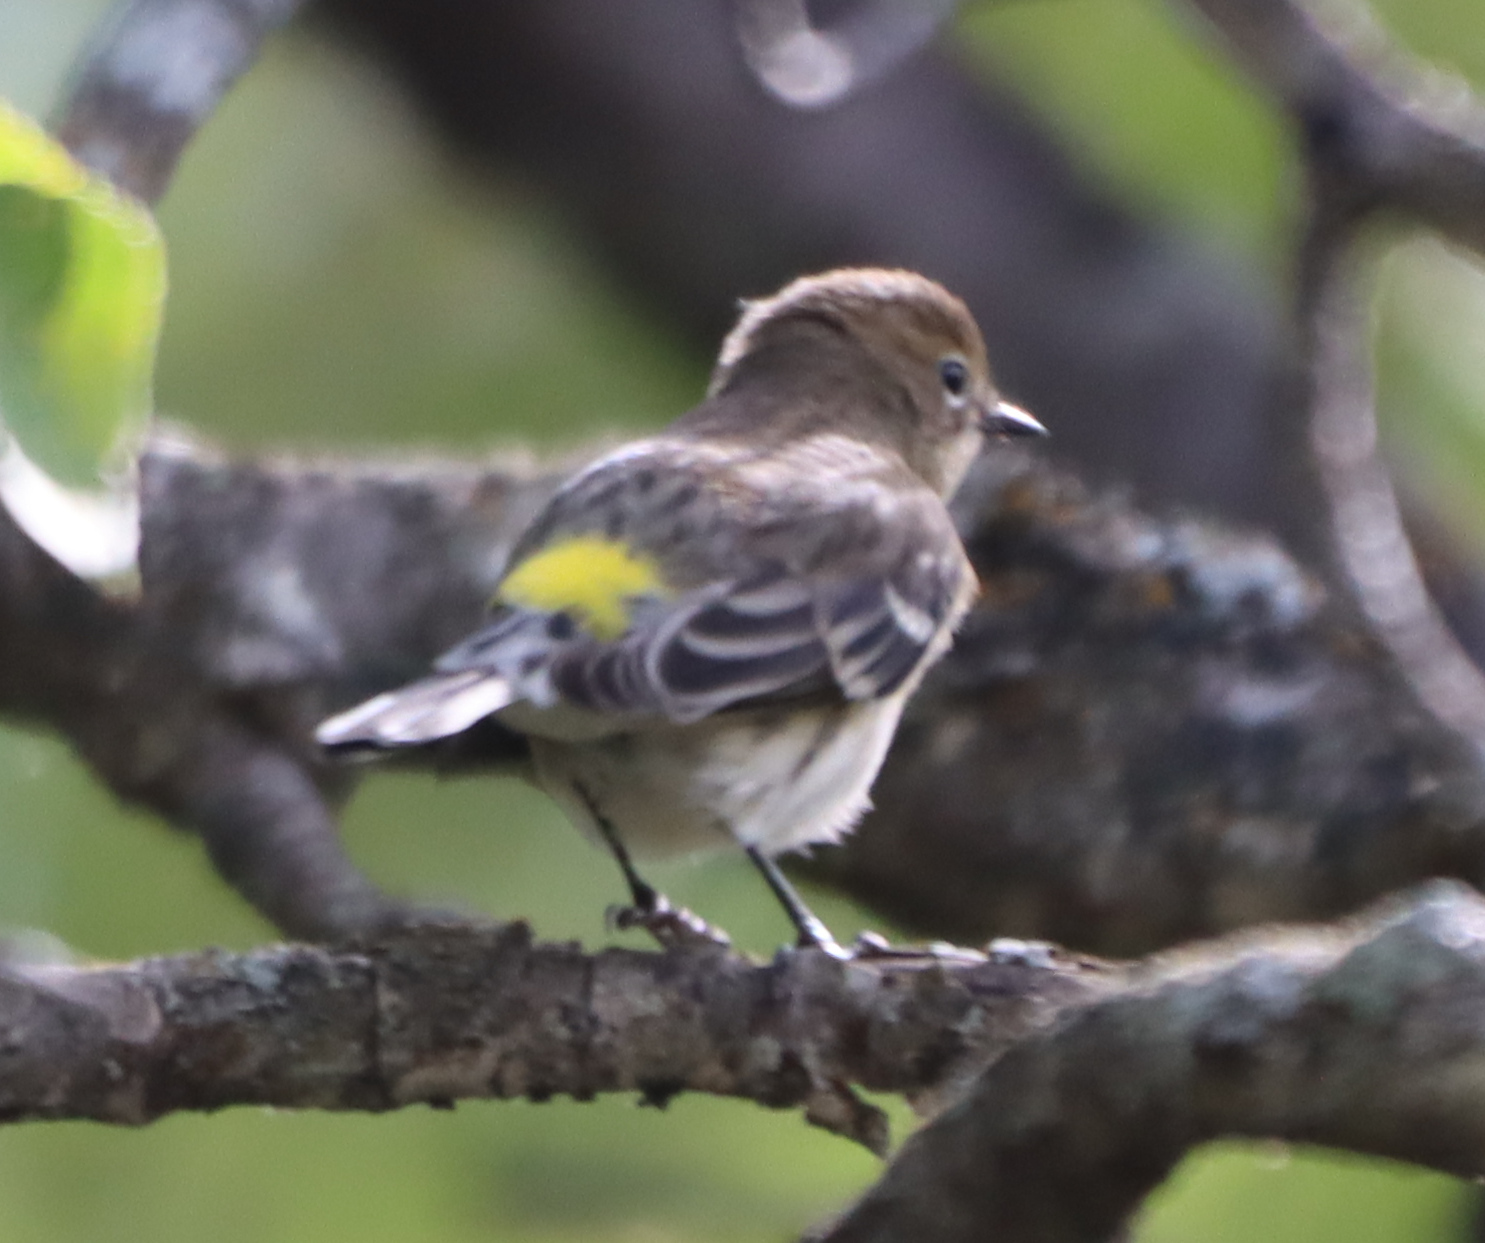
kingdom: Animalia
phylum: Chordata
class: Aves
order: Passeriformes
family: Parulidae
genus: Setophaga
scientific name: Setophaga coronata
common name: Myrtle warbler
